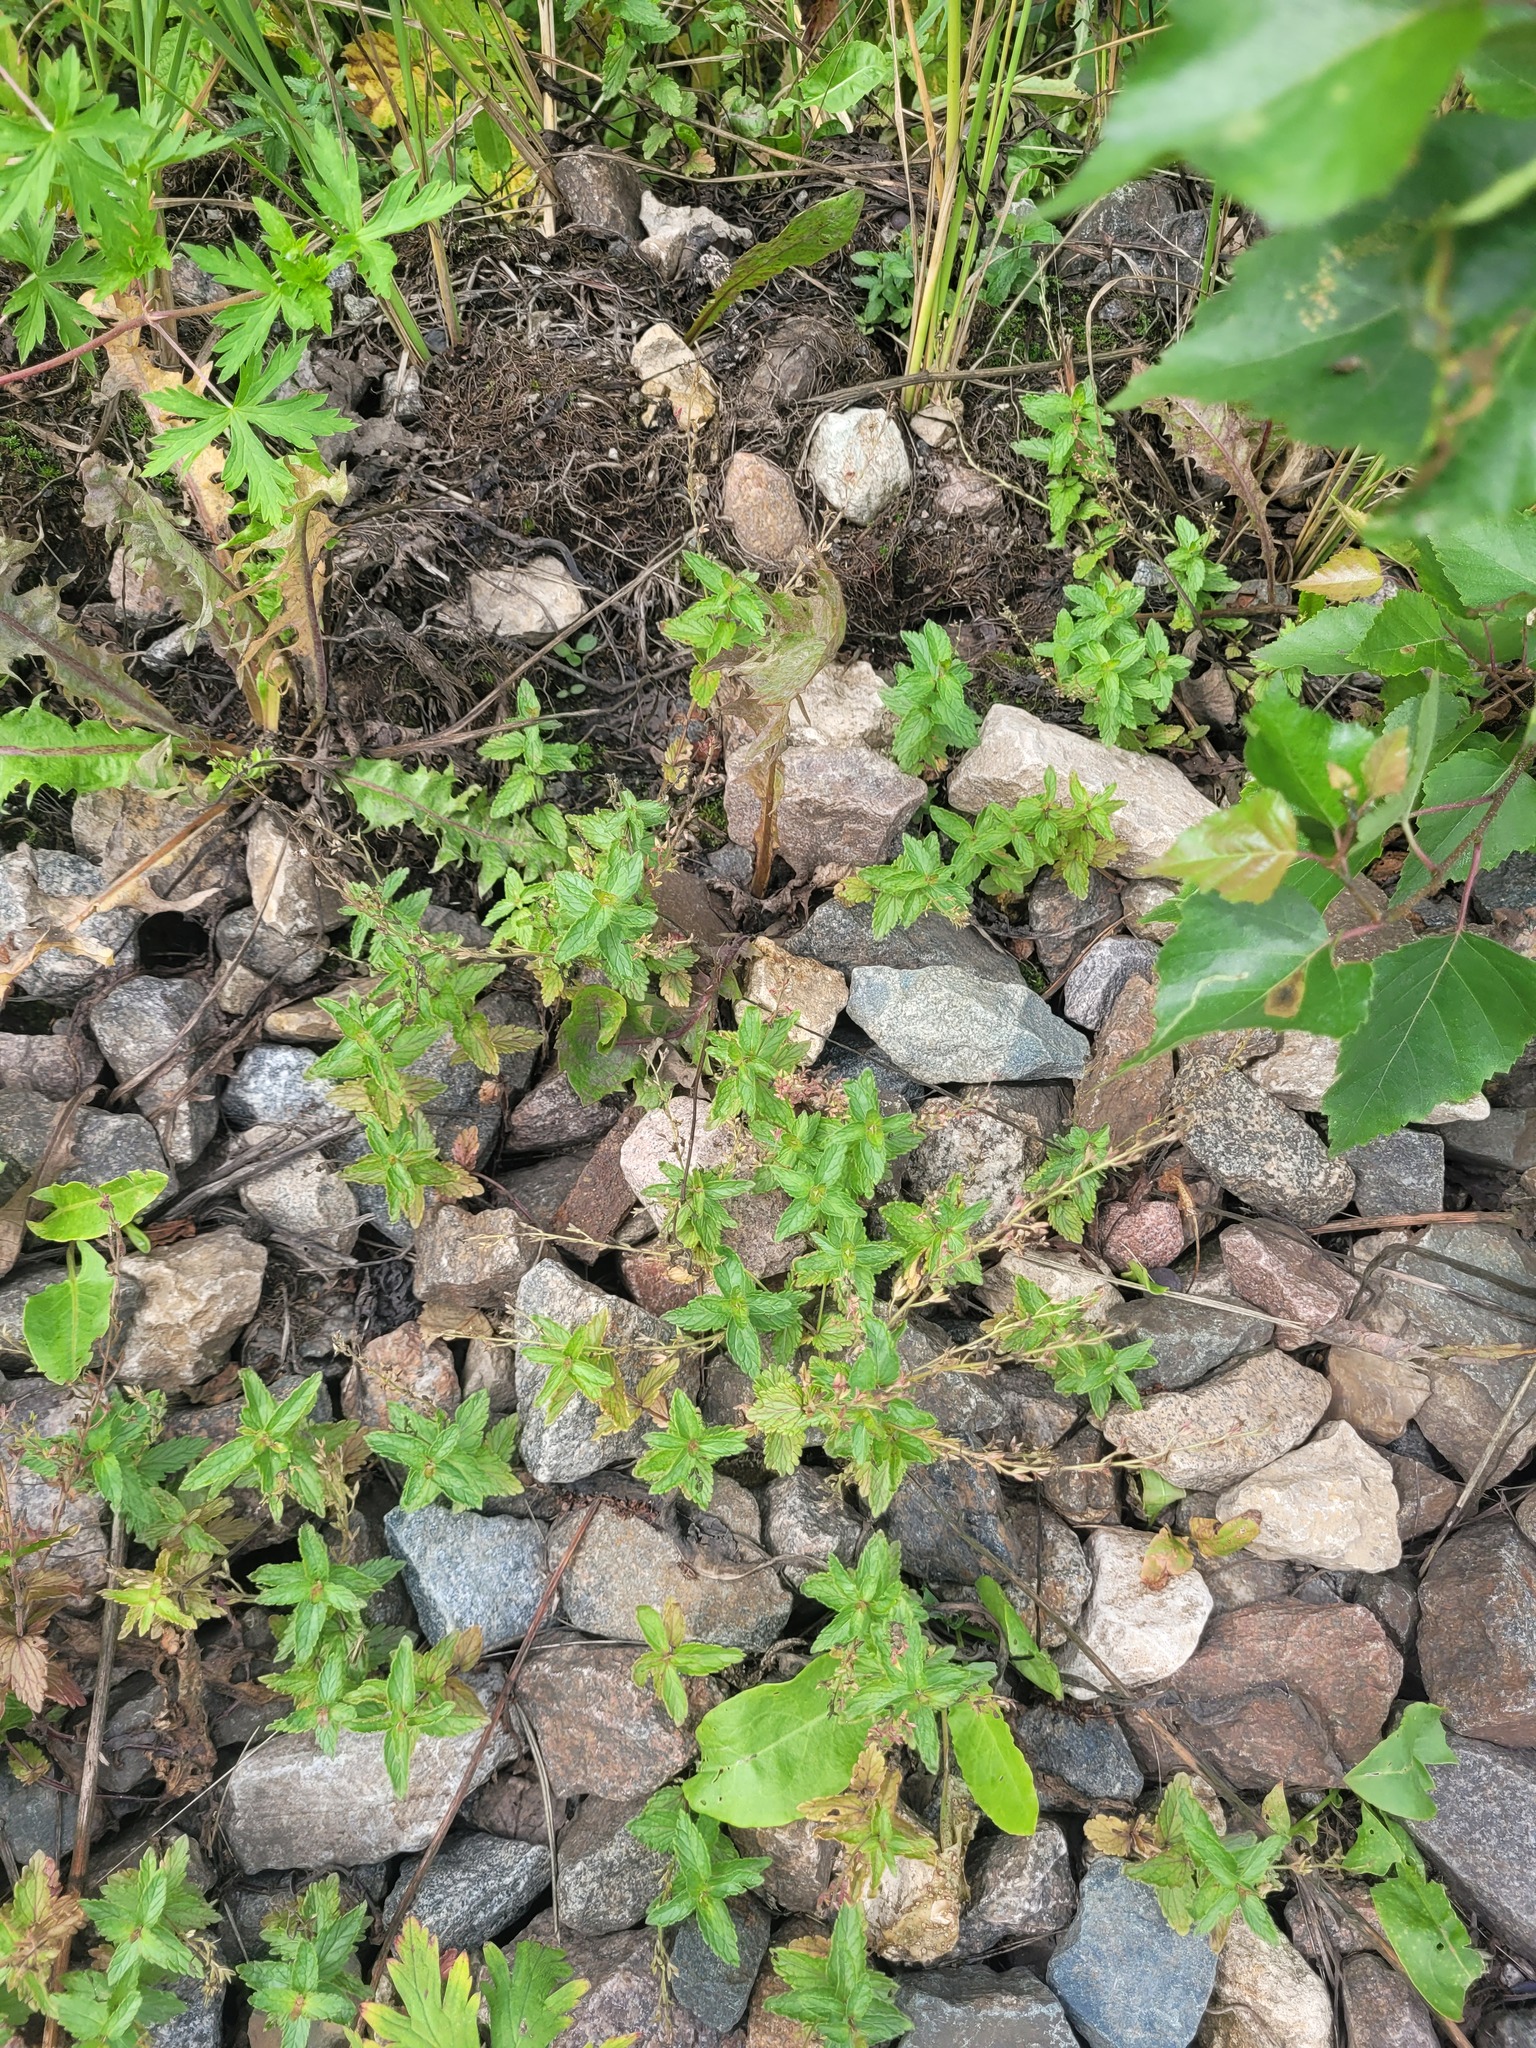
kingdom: Plantae
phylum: Tracheophyta
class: Magnoliopsida
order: Lamiales
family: Plantaginaceae
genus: Veronica
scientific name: Veronica chamaedrys
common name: Germander speedwell
